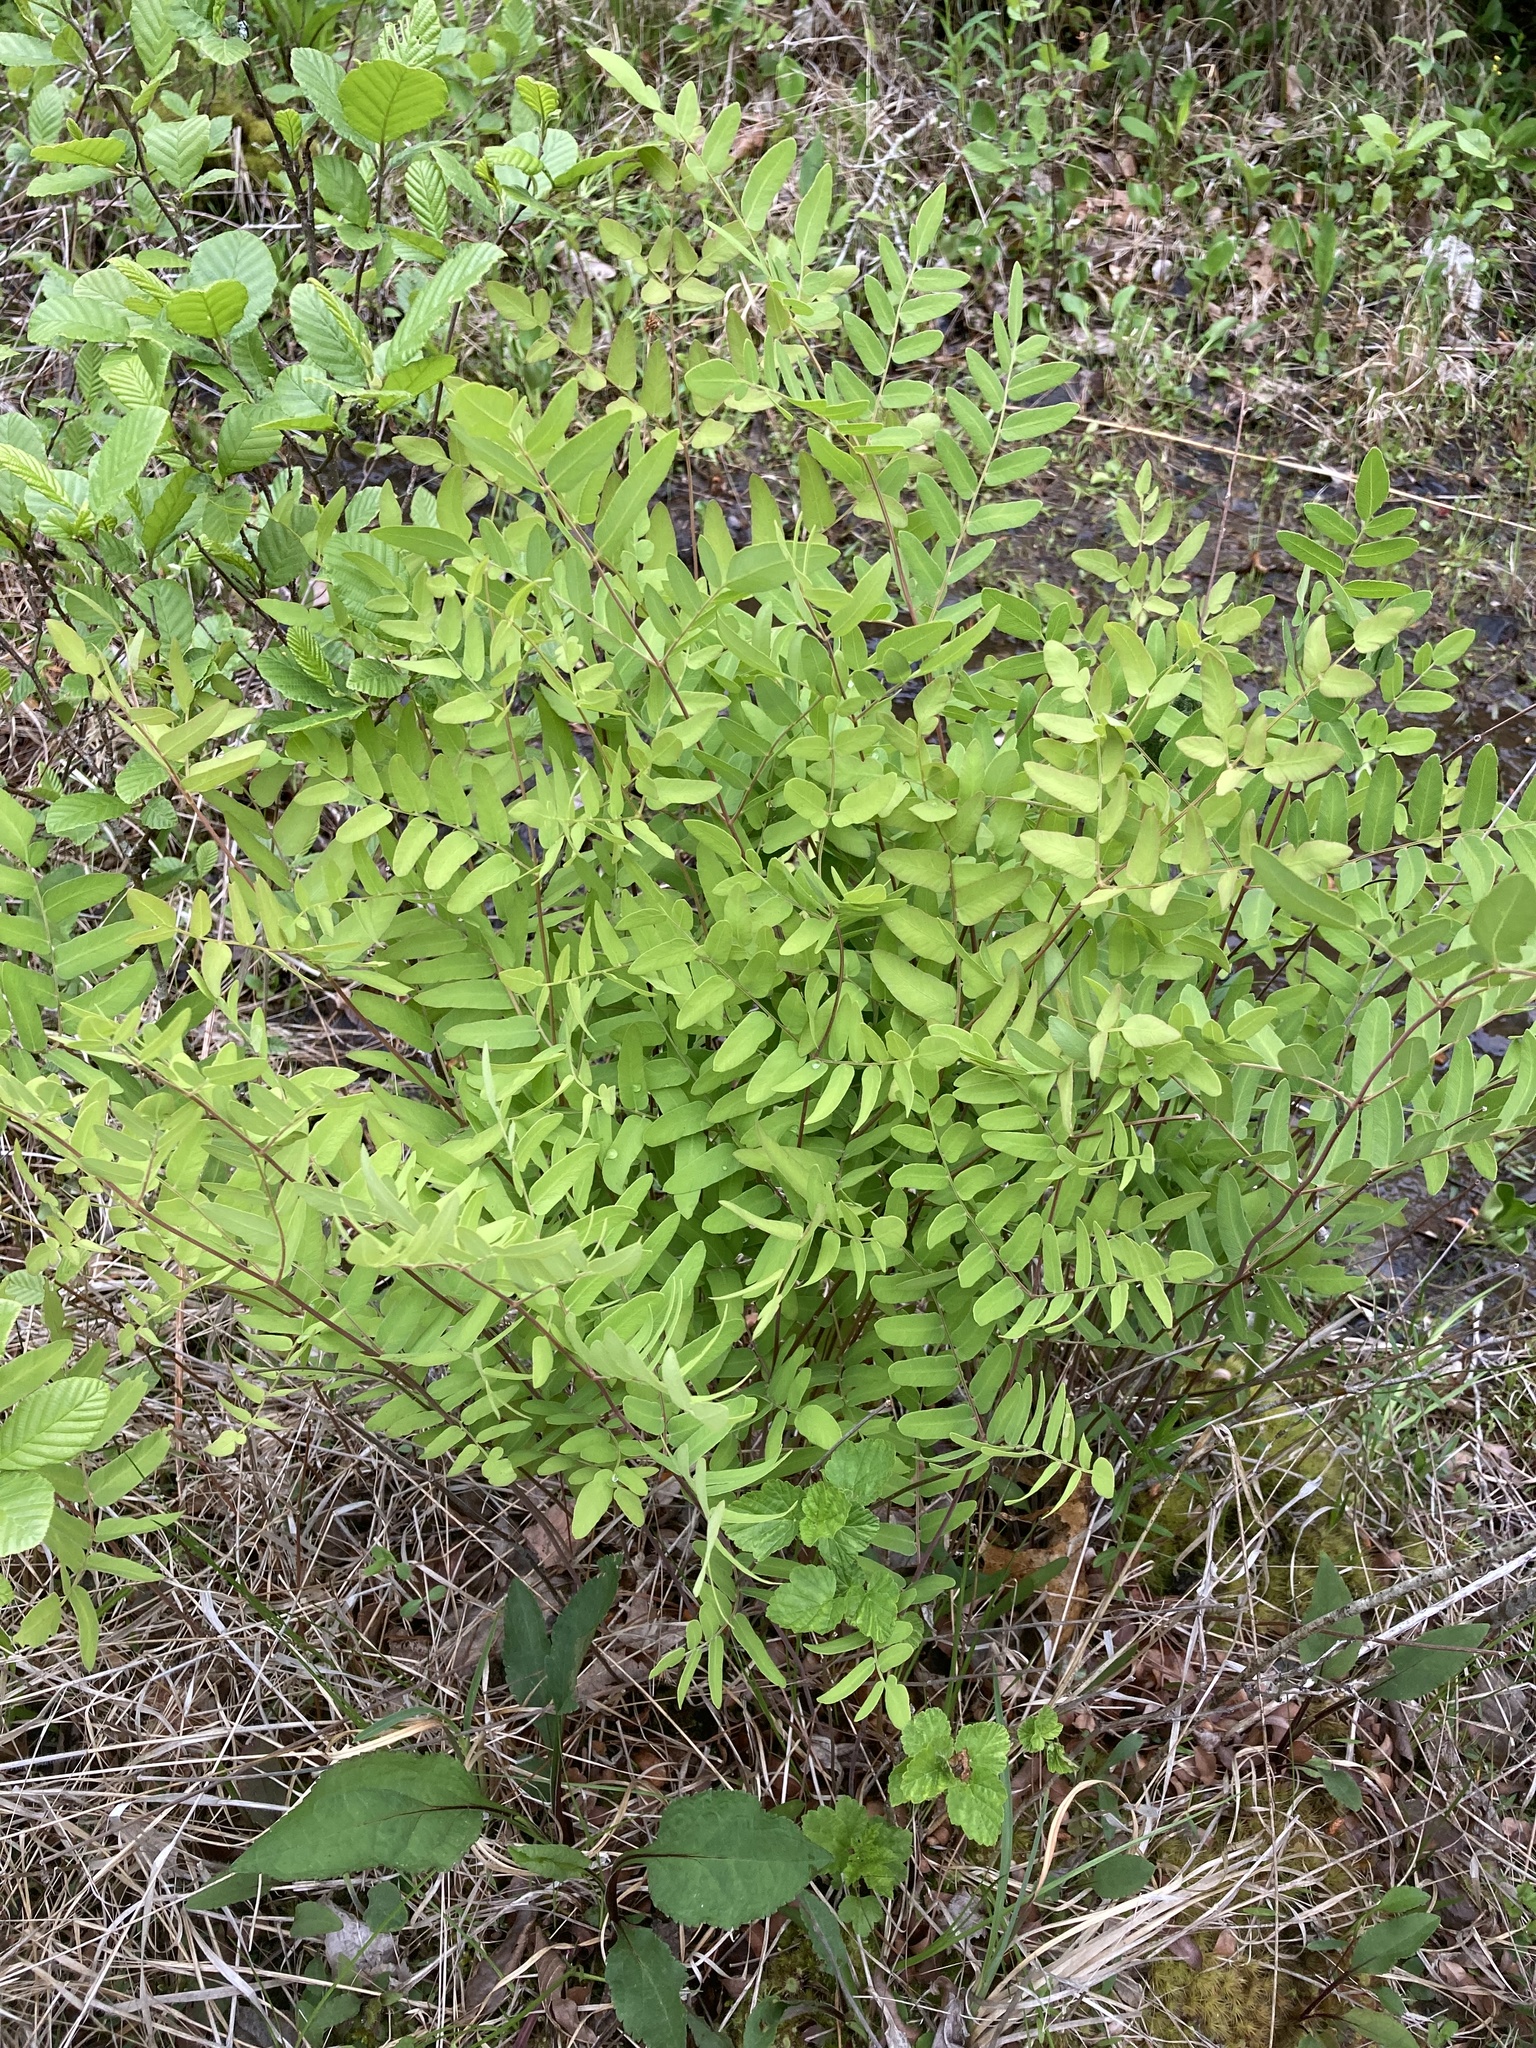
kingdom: Plantae
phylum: Tracheophyta
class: Polypodiopsida
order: Osmundales
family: Osmundaceae
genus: Osmunda
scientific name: Osmunda spectabilis
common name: American royal fern
